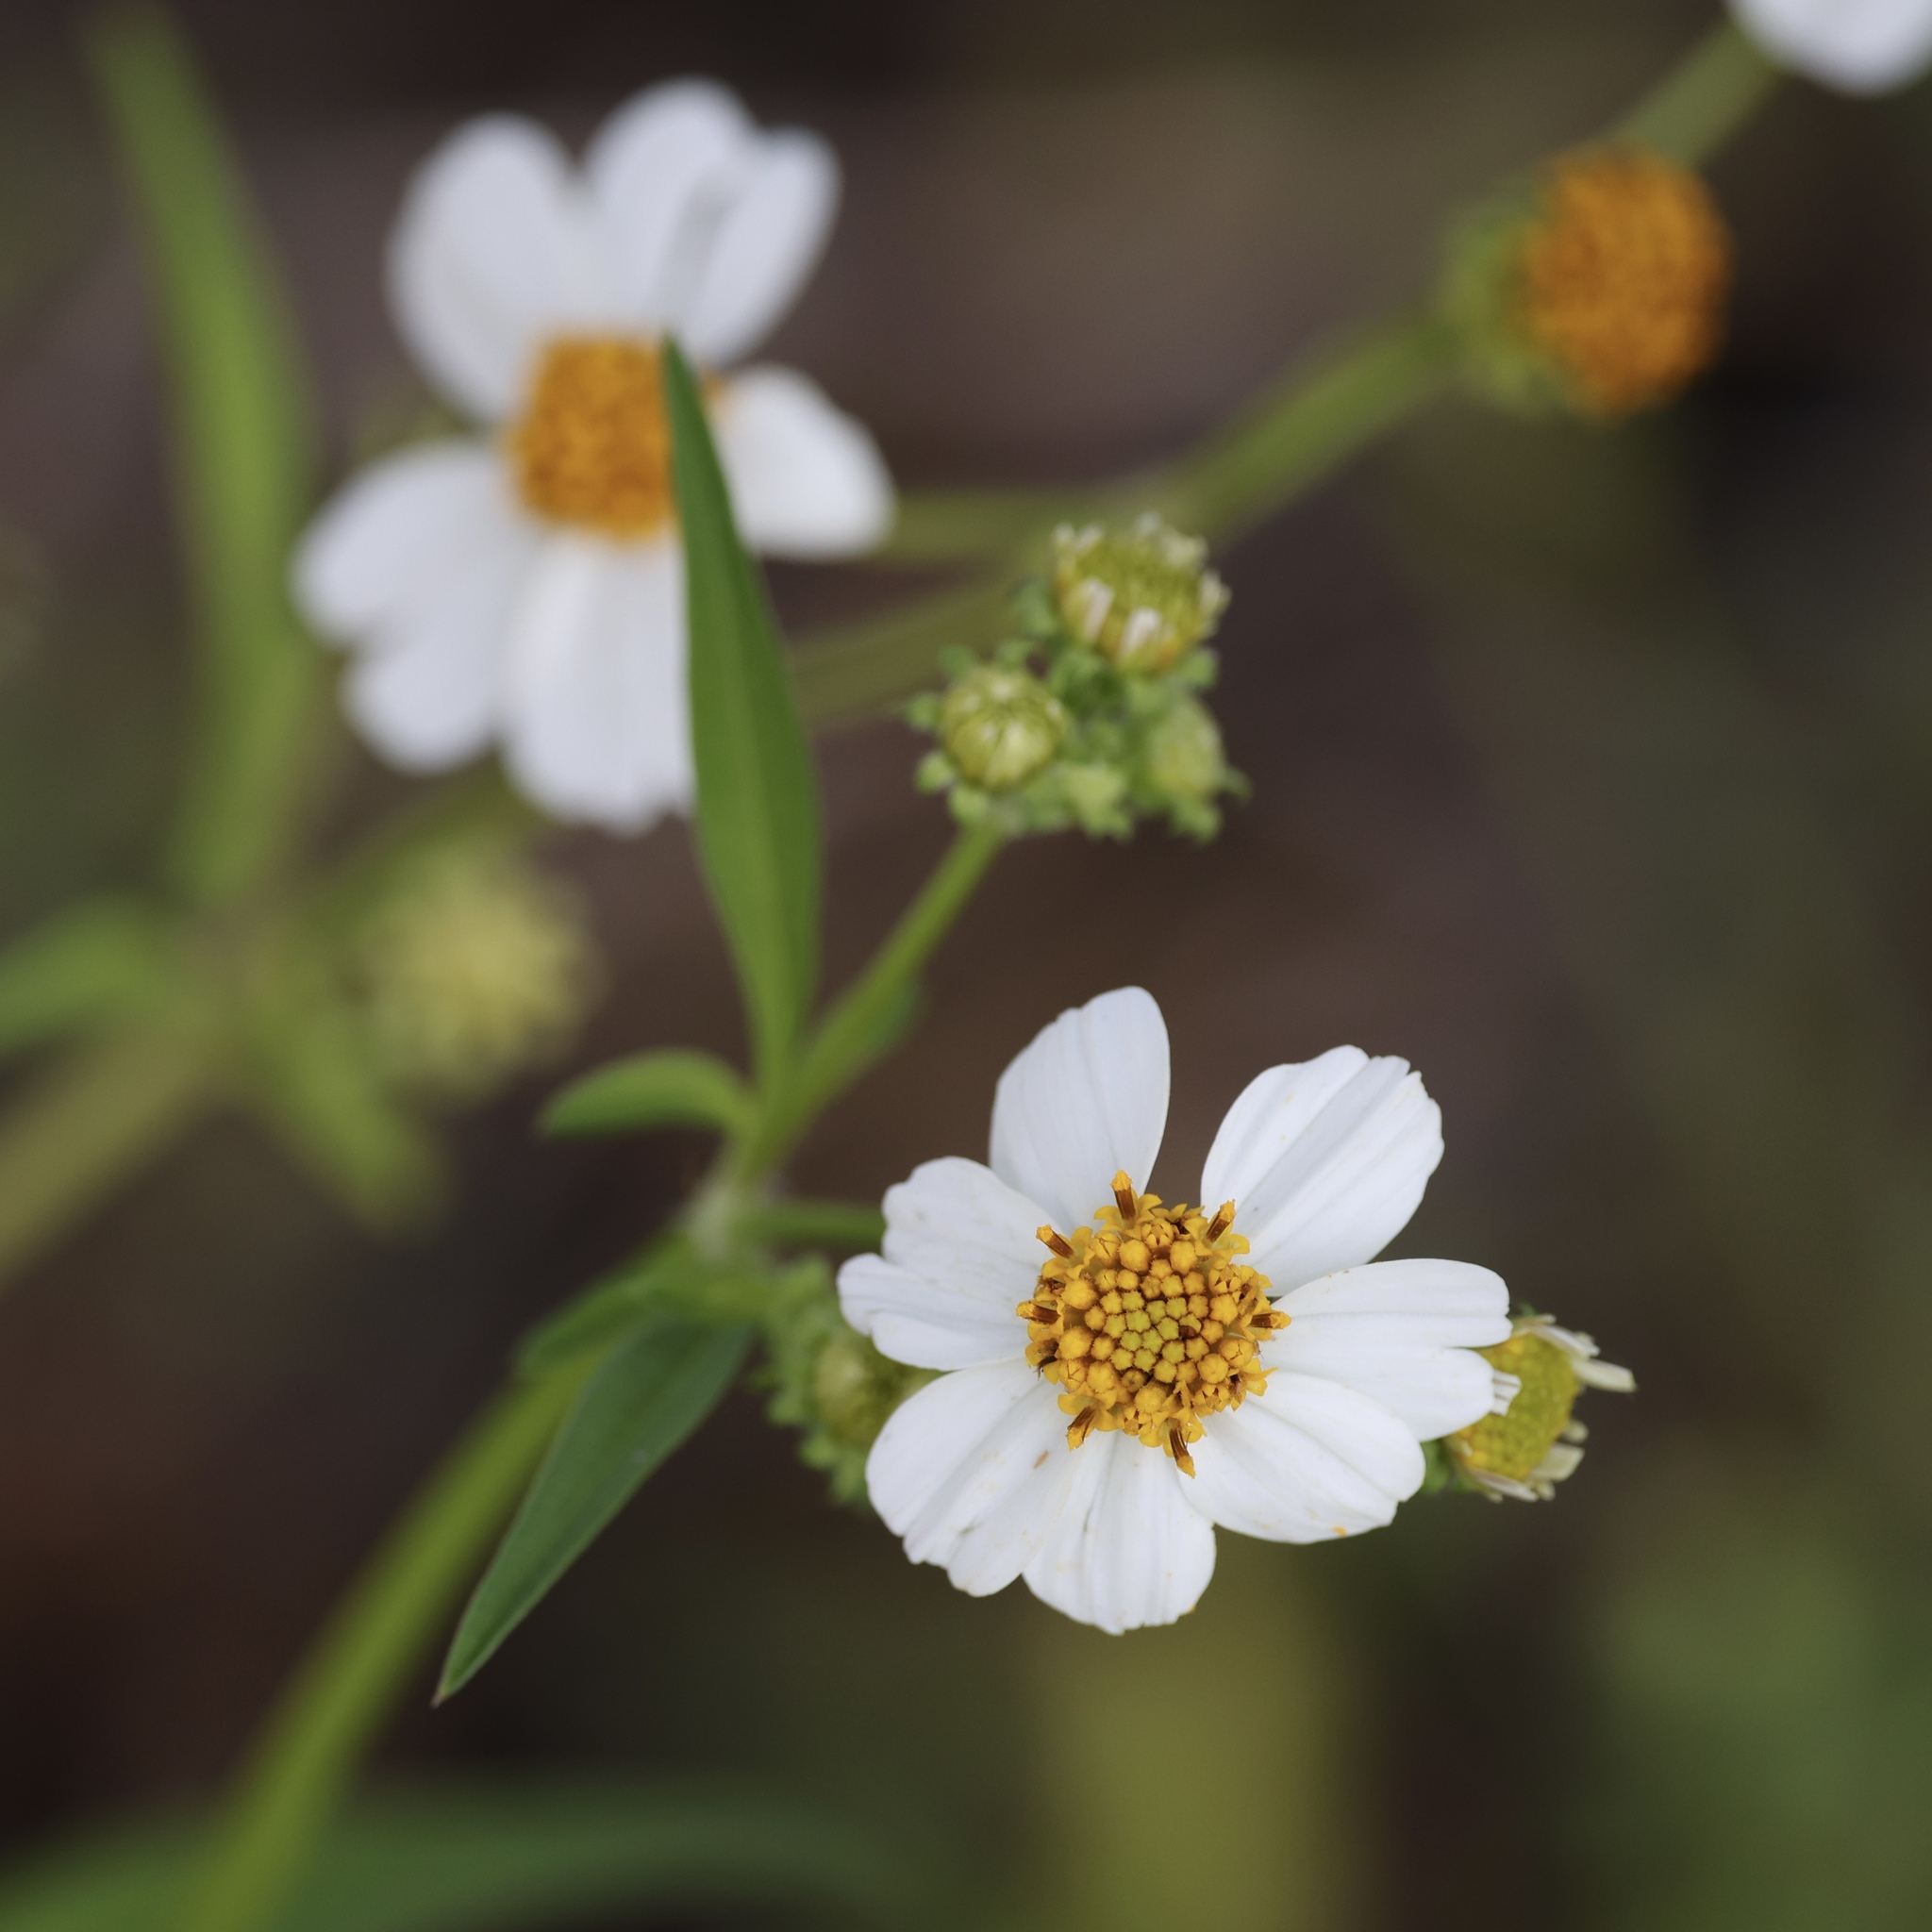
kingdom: Plantae
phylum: Tracheophyta
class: Magnoliopsida
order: Asterales
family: Asteraceae
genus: Bidens
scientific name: Bidens alba
